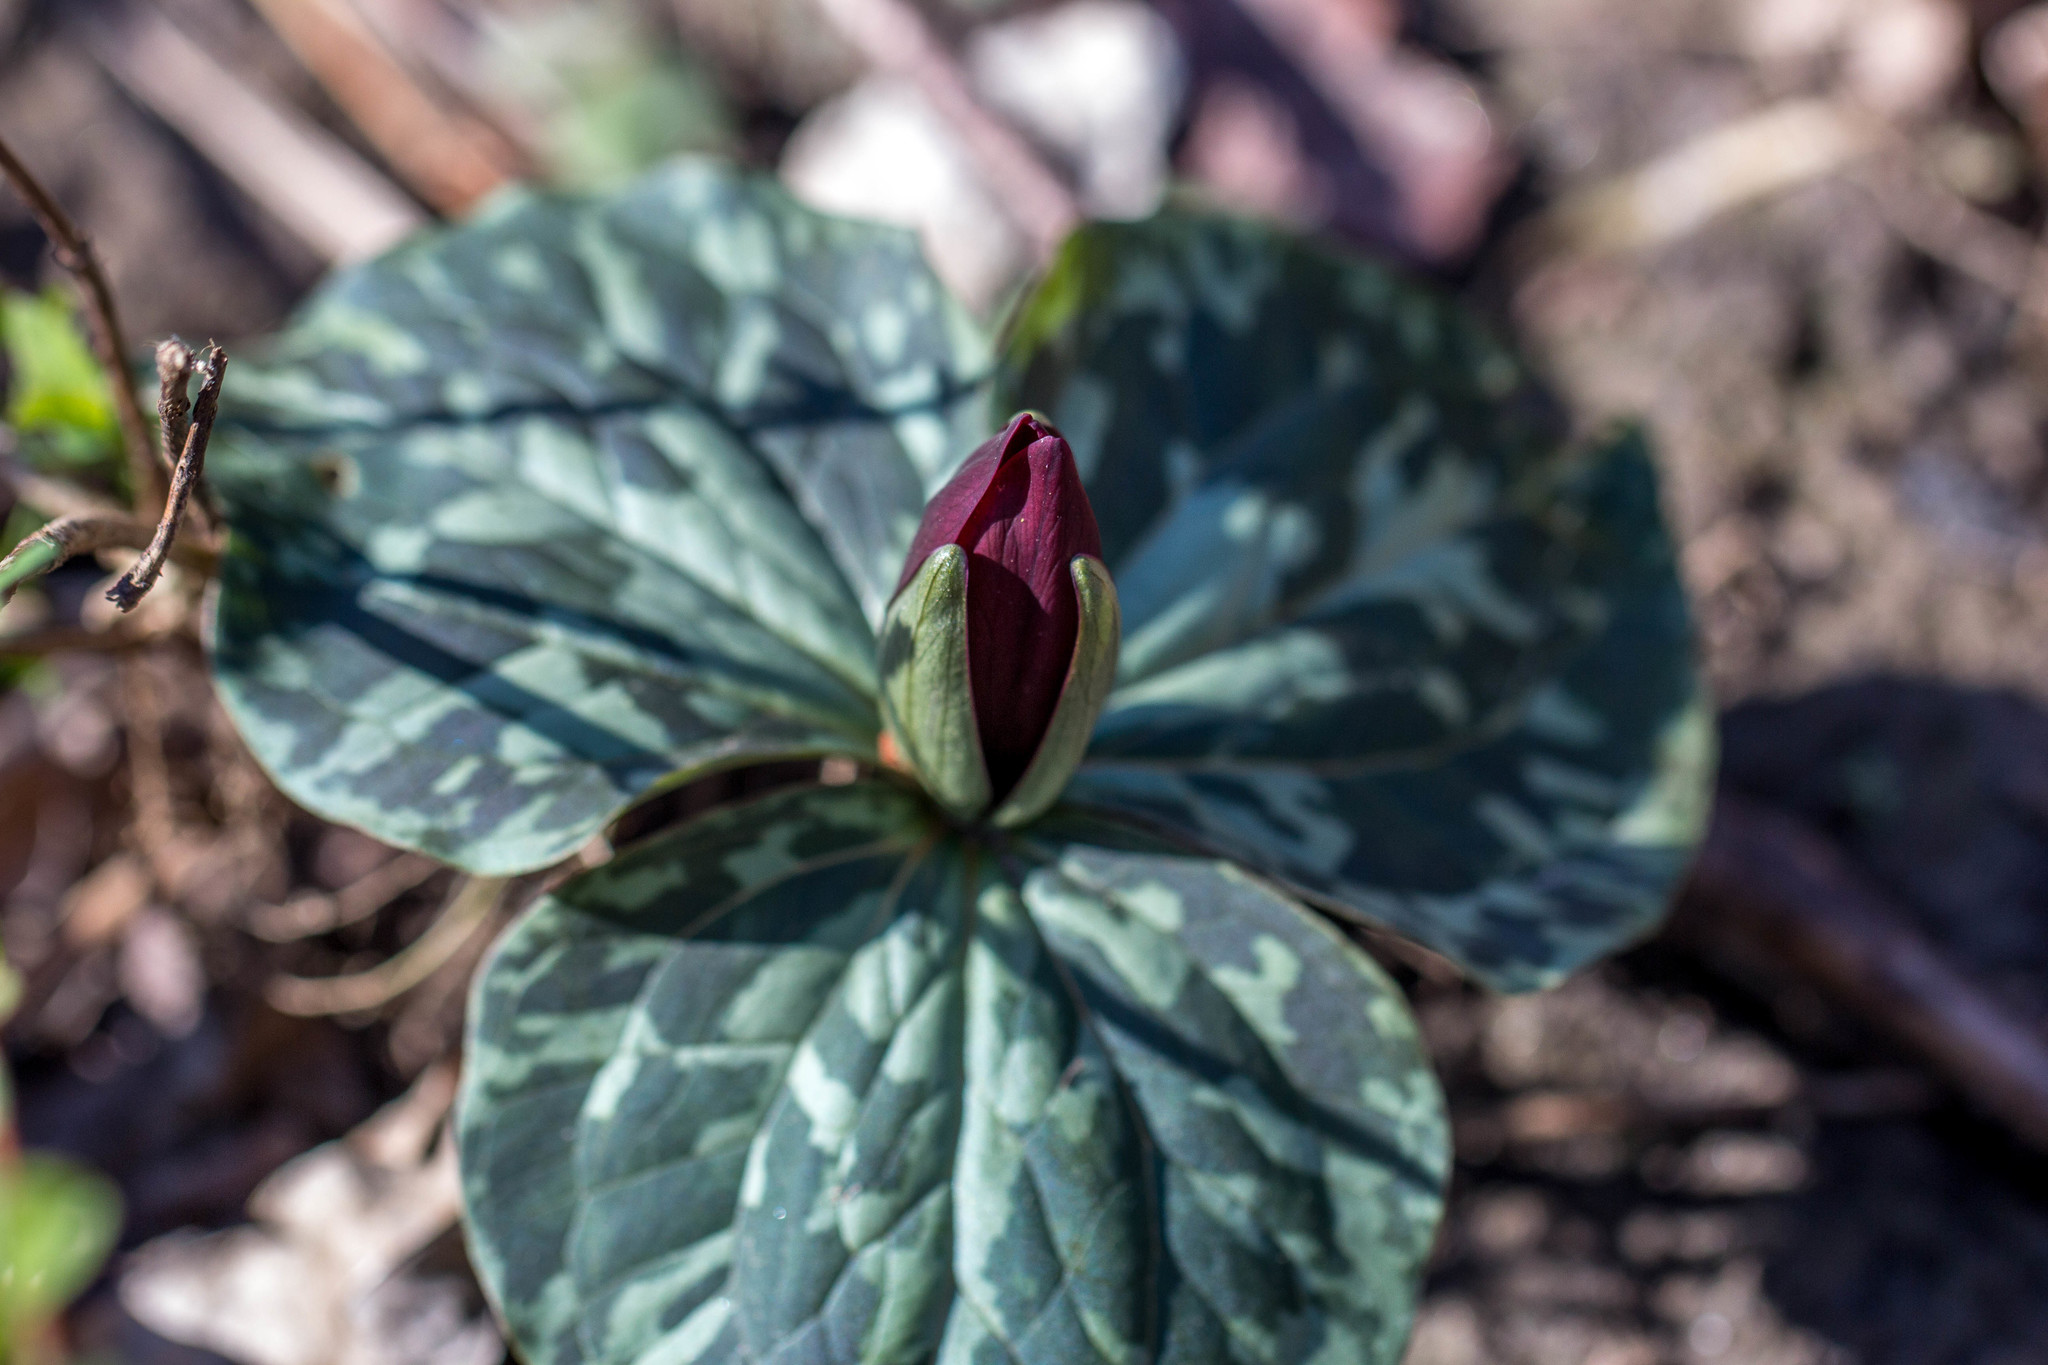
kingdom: Plantae
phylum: Tracheophyta
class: Liliopsida
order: Liliales
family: Melanthiaceae
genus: Trillium
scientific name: Trillium cuneatum
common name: Cuneate trillium
